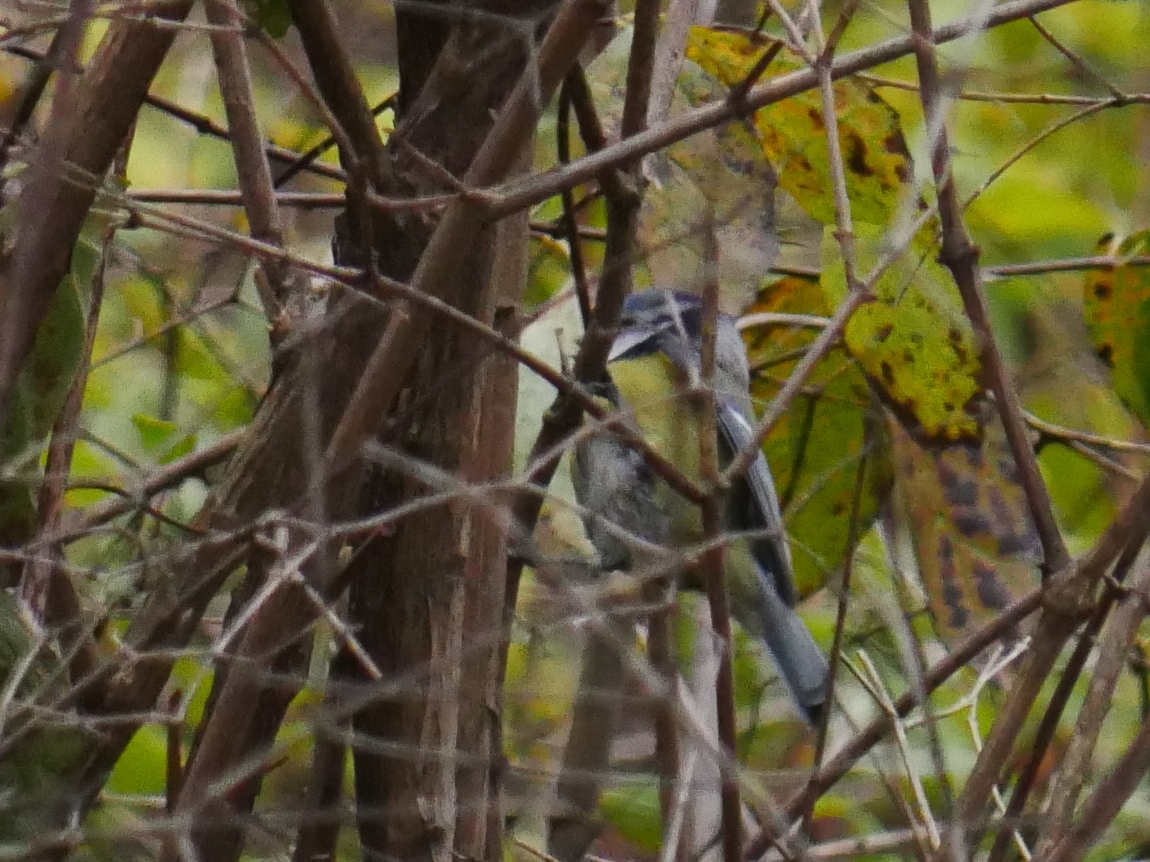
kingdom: Animalia
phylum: Chordata
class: Aves
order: Passeriformes
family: Paridae
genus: Cyanistes
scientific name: Cyanistes caeruleus
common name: Eurasian blue tit
